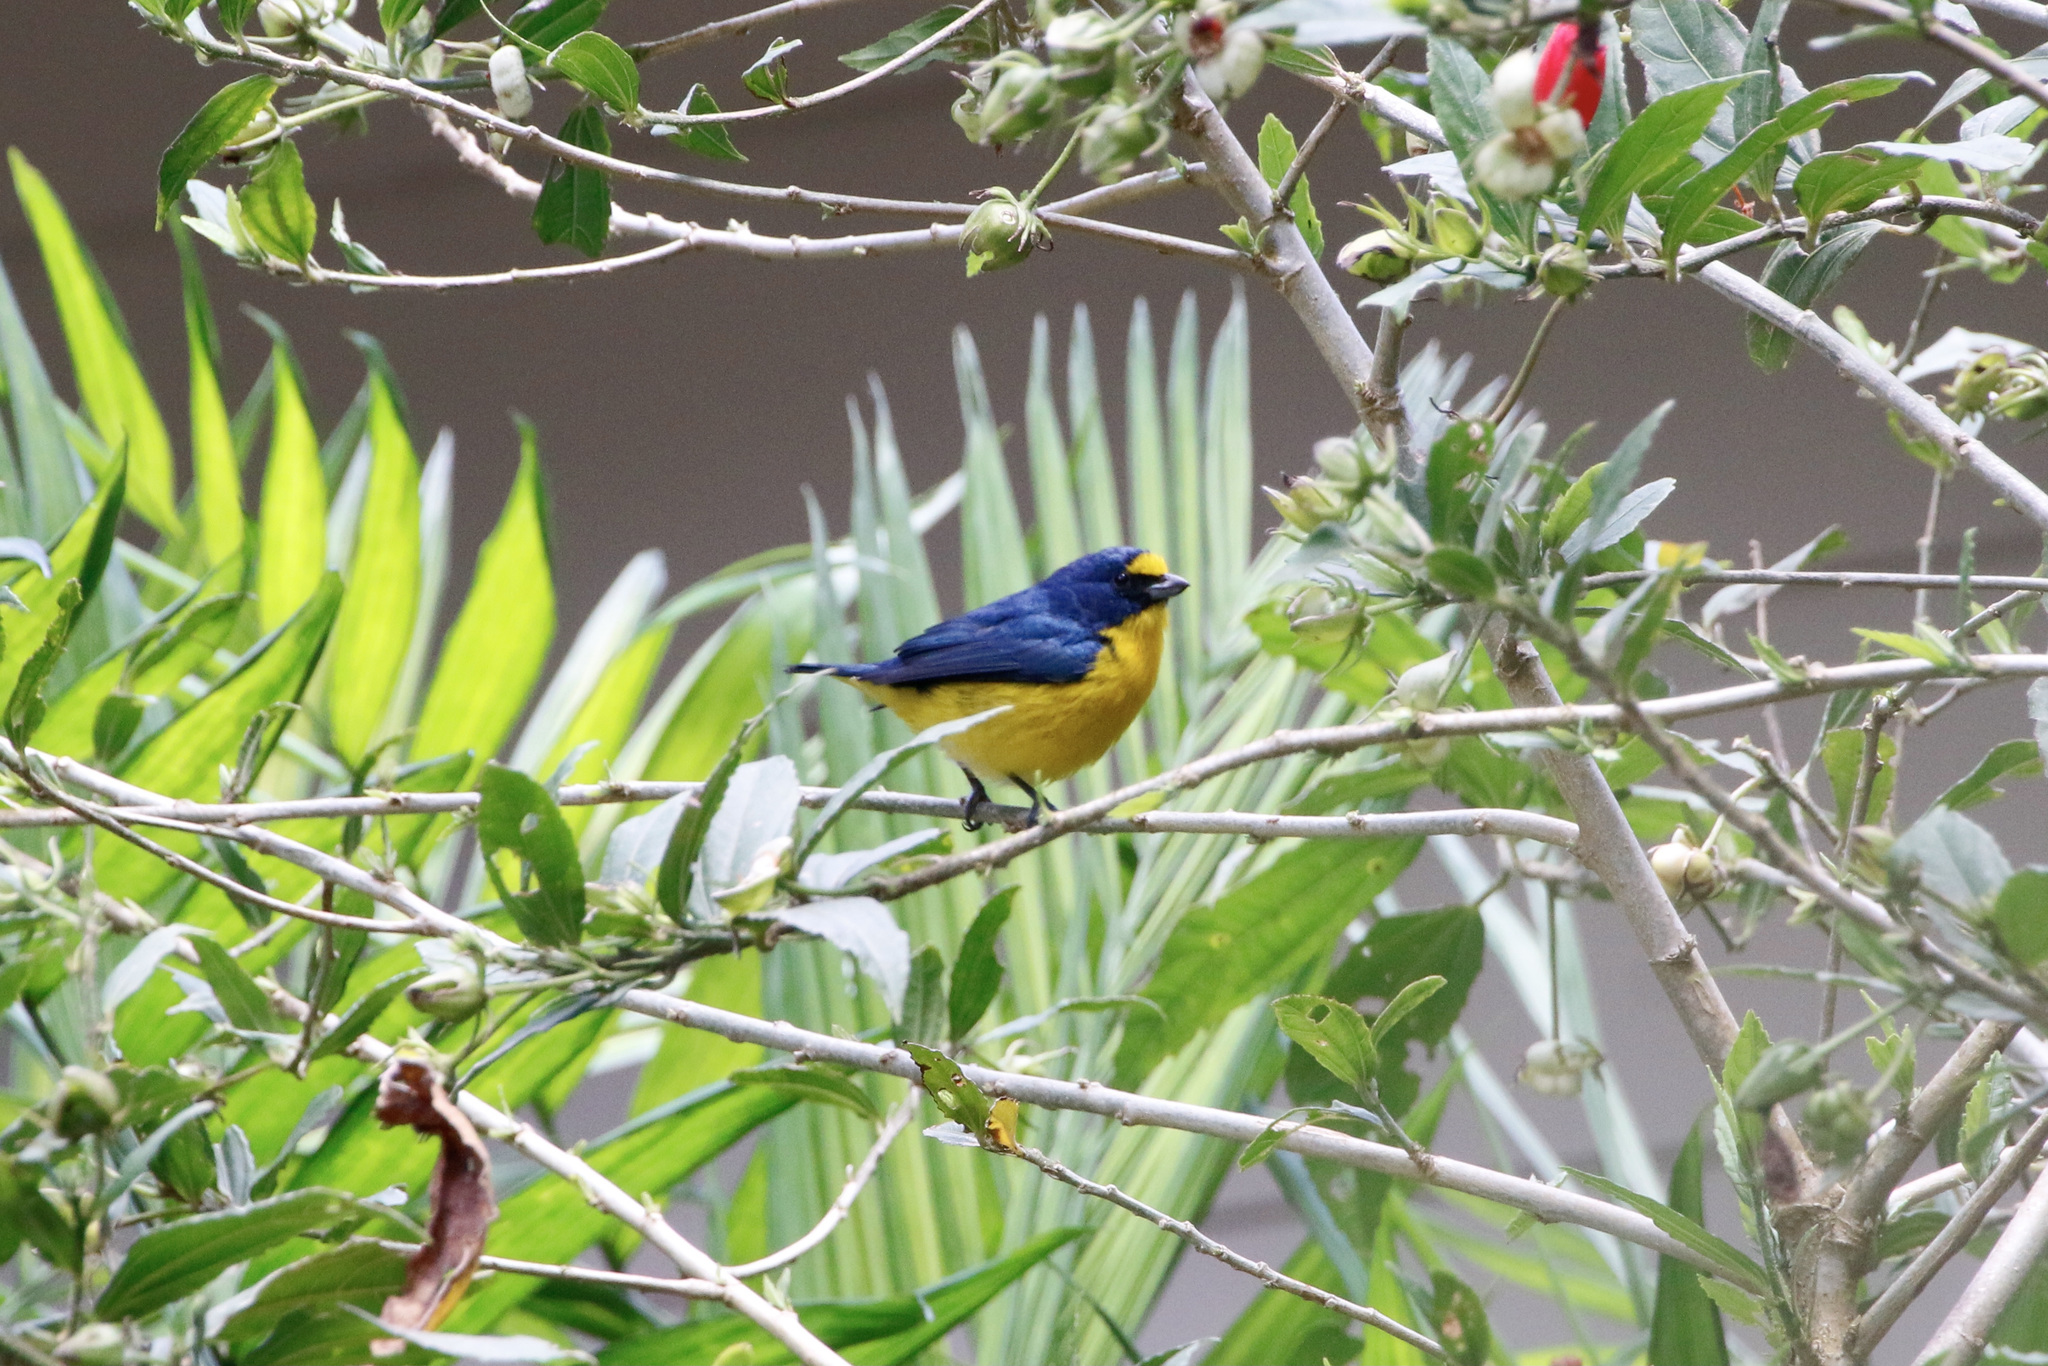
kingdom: Animalia
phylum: Chordata
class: Aves
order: Passeriformes
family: Fringillidae
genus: Euphonia
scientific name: Euphonia hirundinacea
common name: Yellow-throated euphonia
